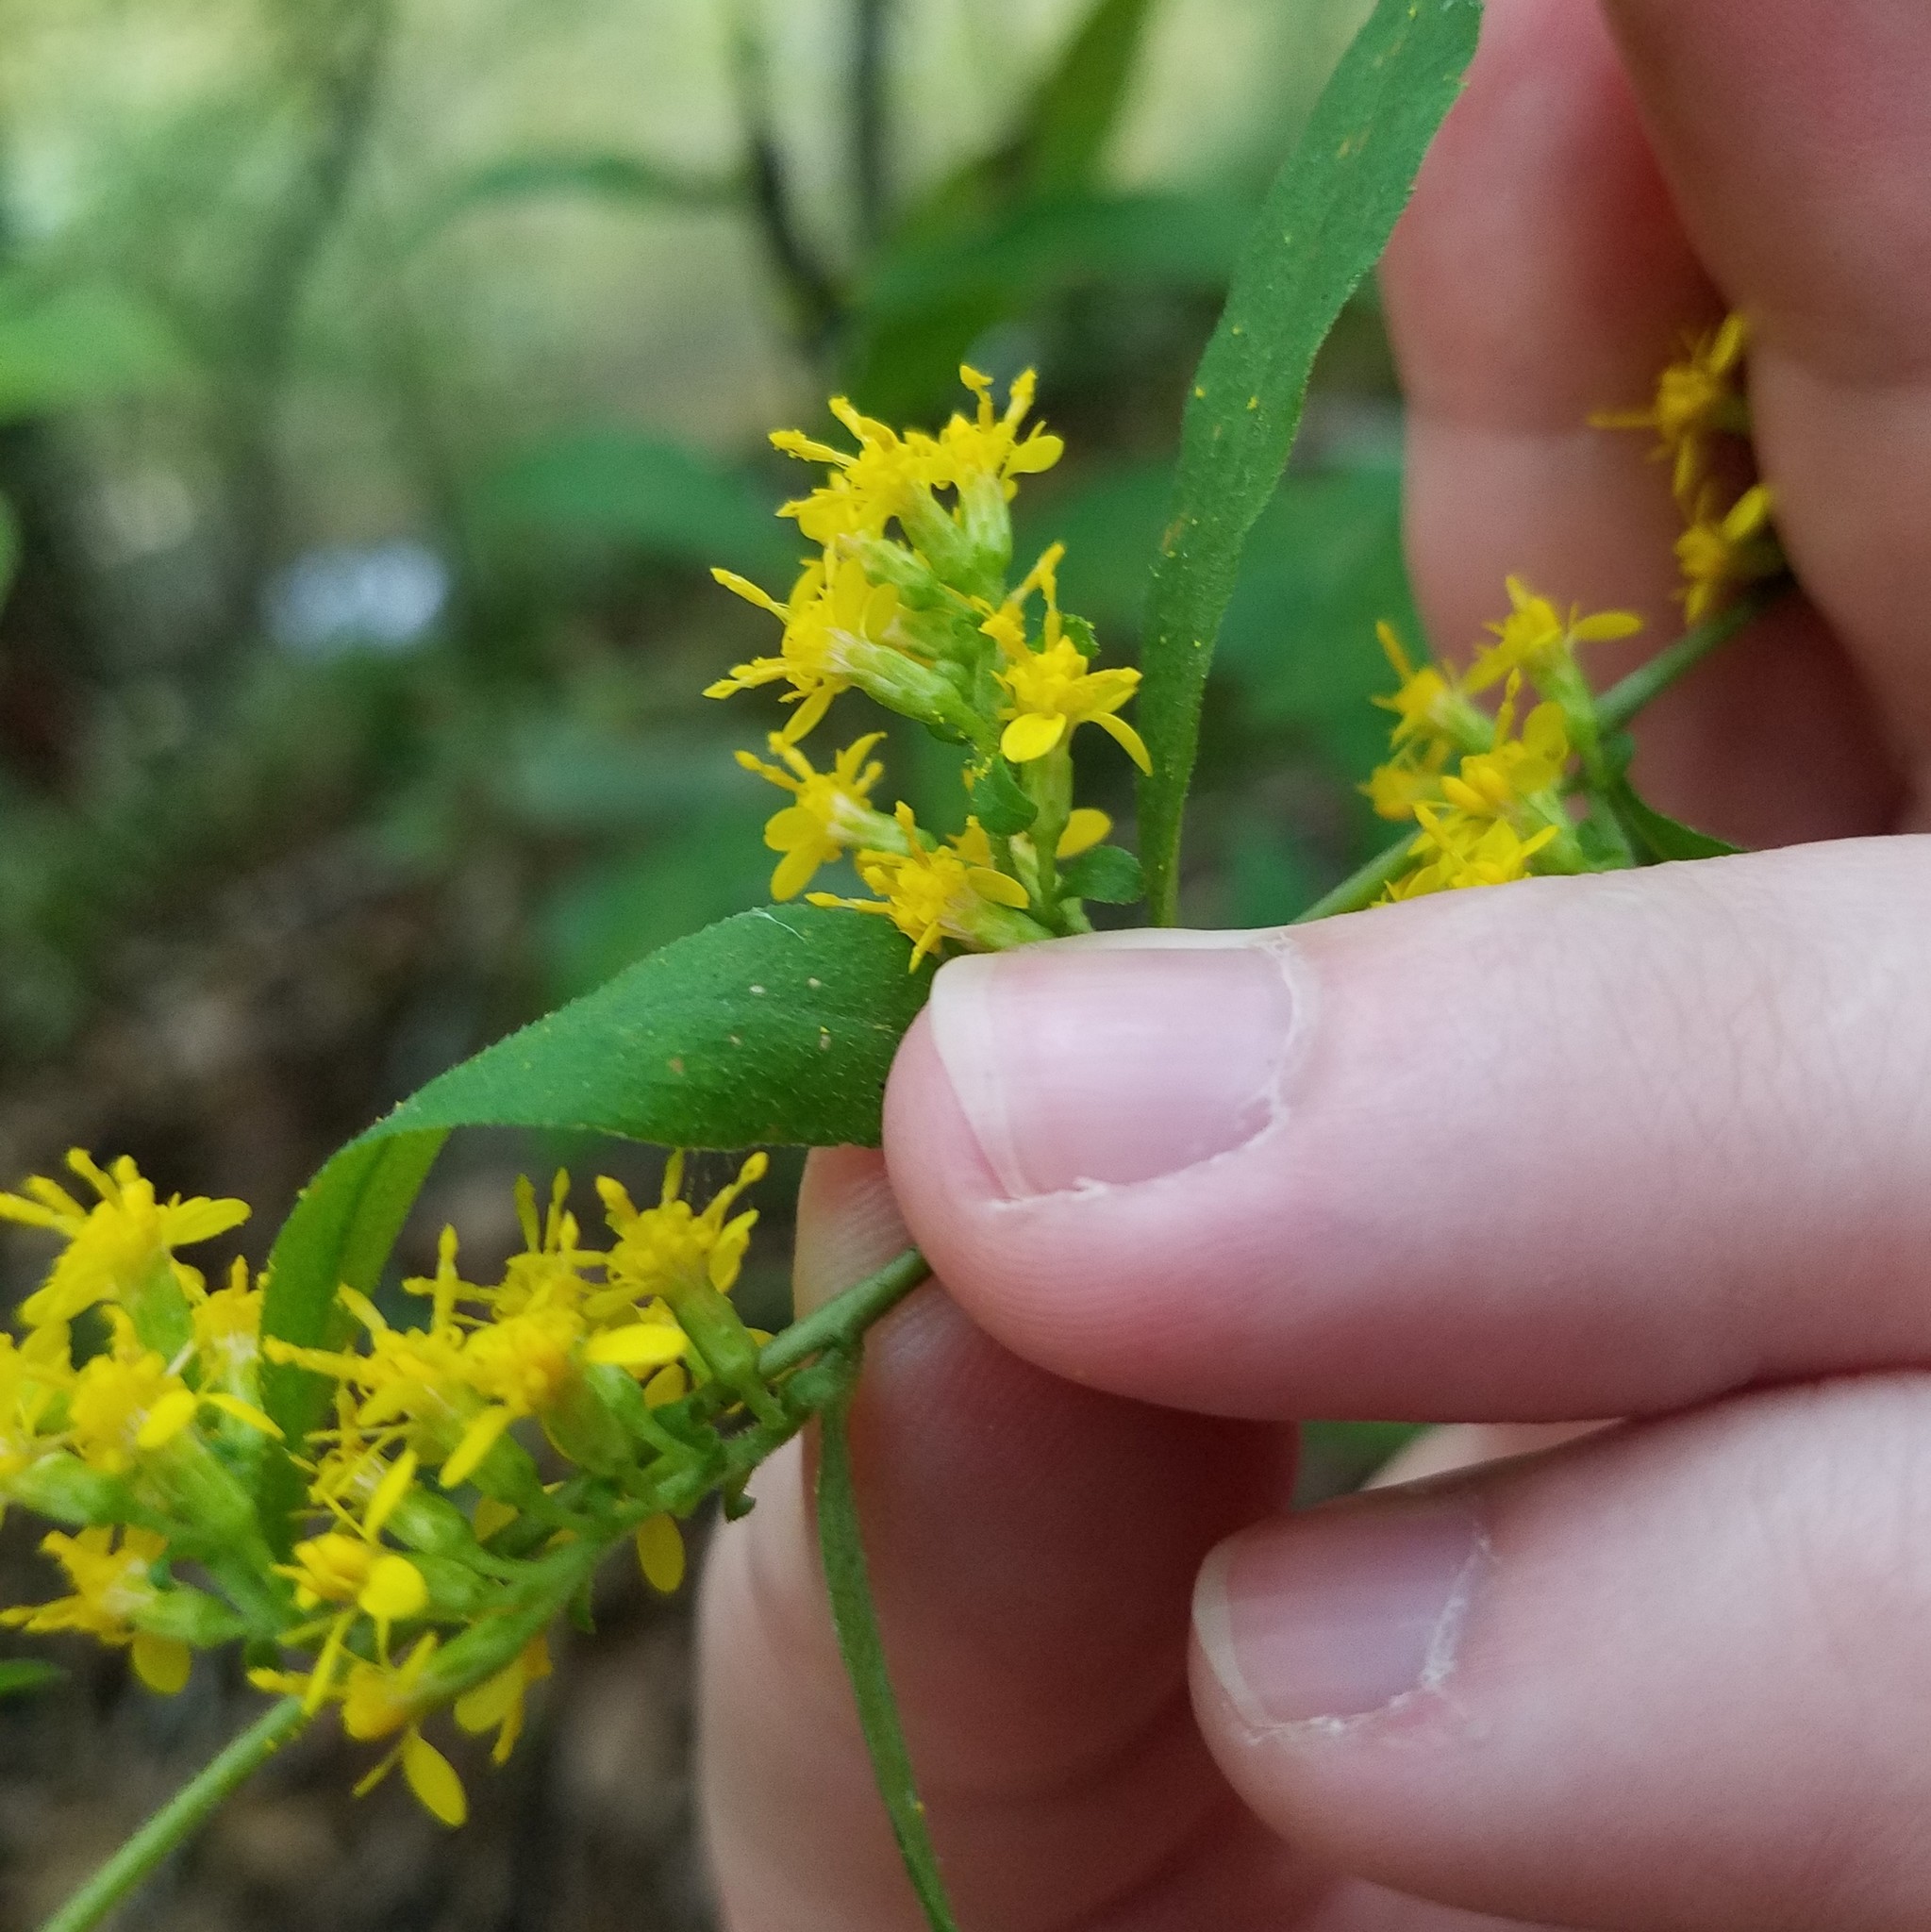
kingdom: Plantae
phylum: Tracheophyta
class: Magnoliopsida
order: Asterales
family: Asteraceae
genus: Solidago
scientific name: Solidago caesia
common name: Woodland goldenrod
